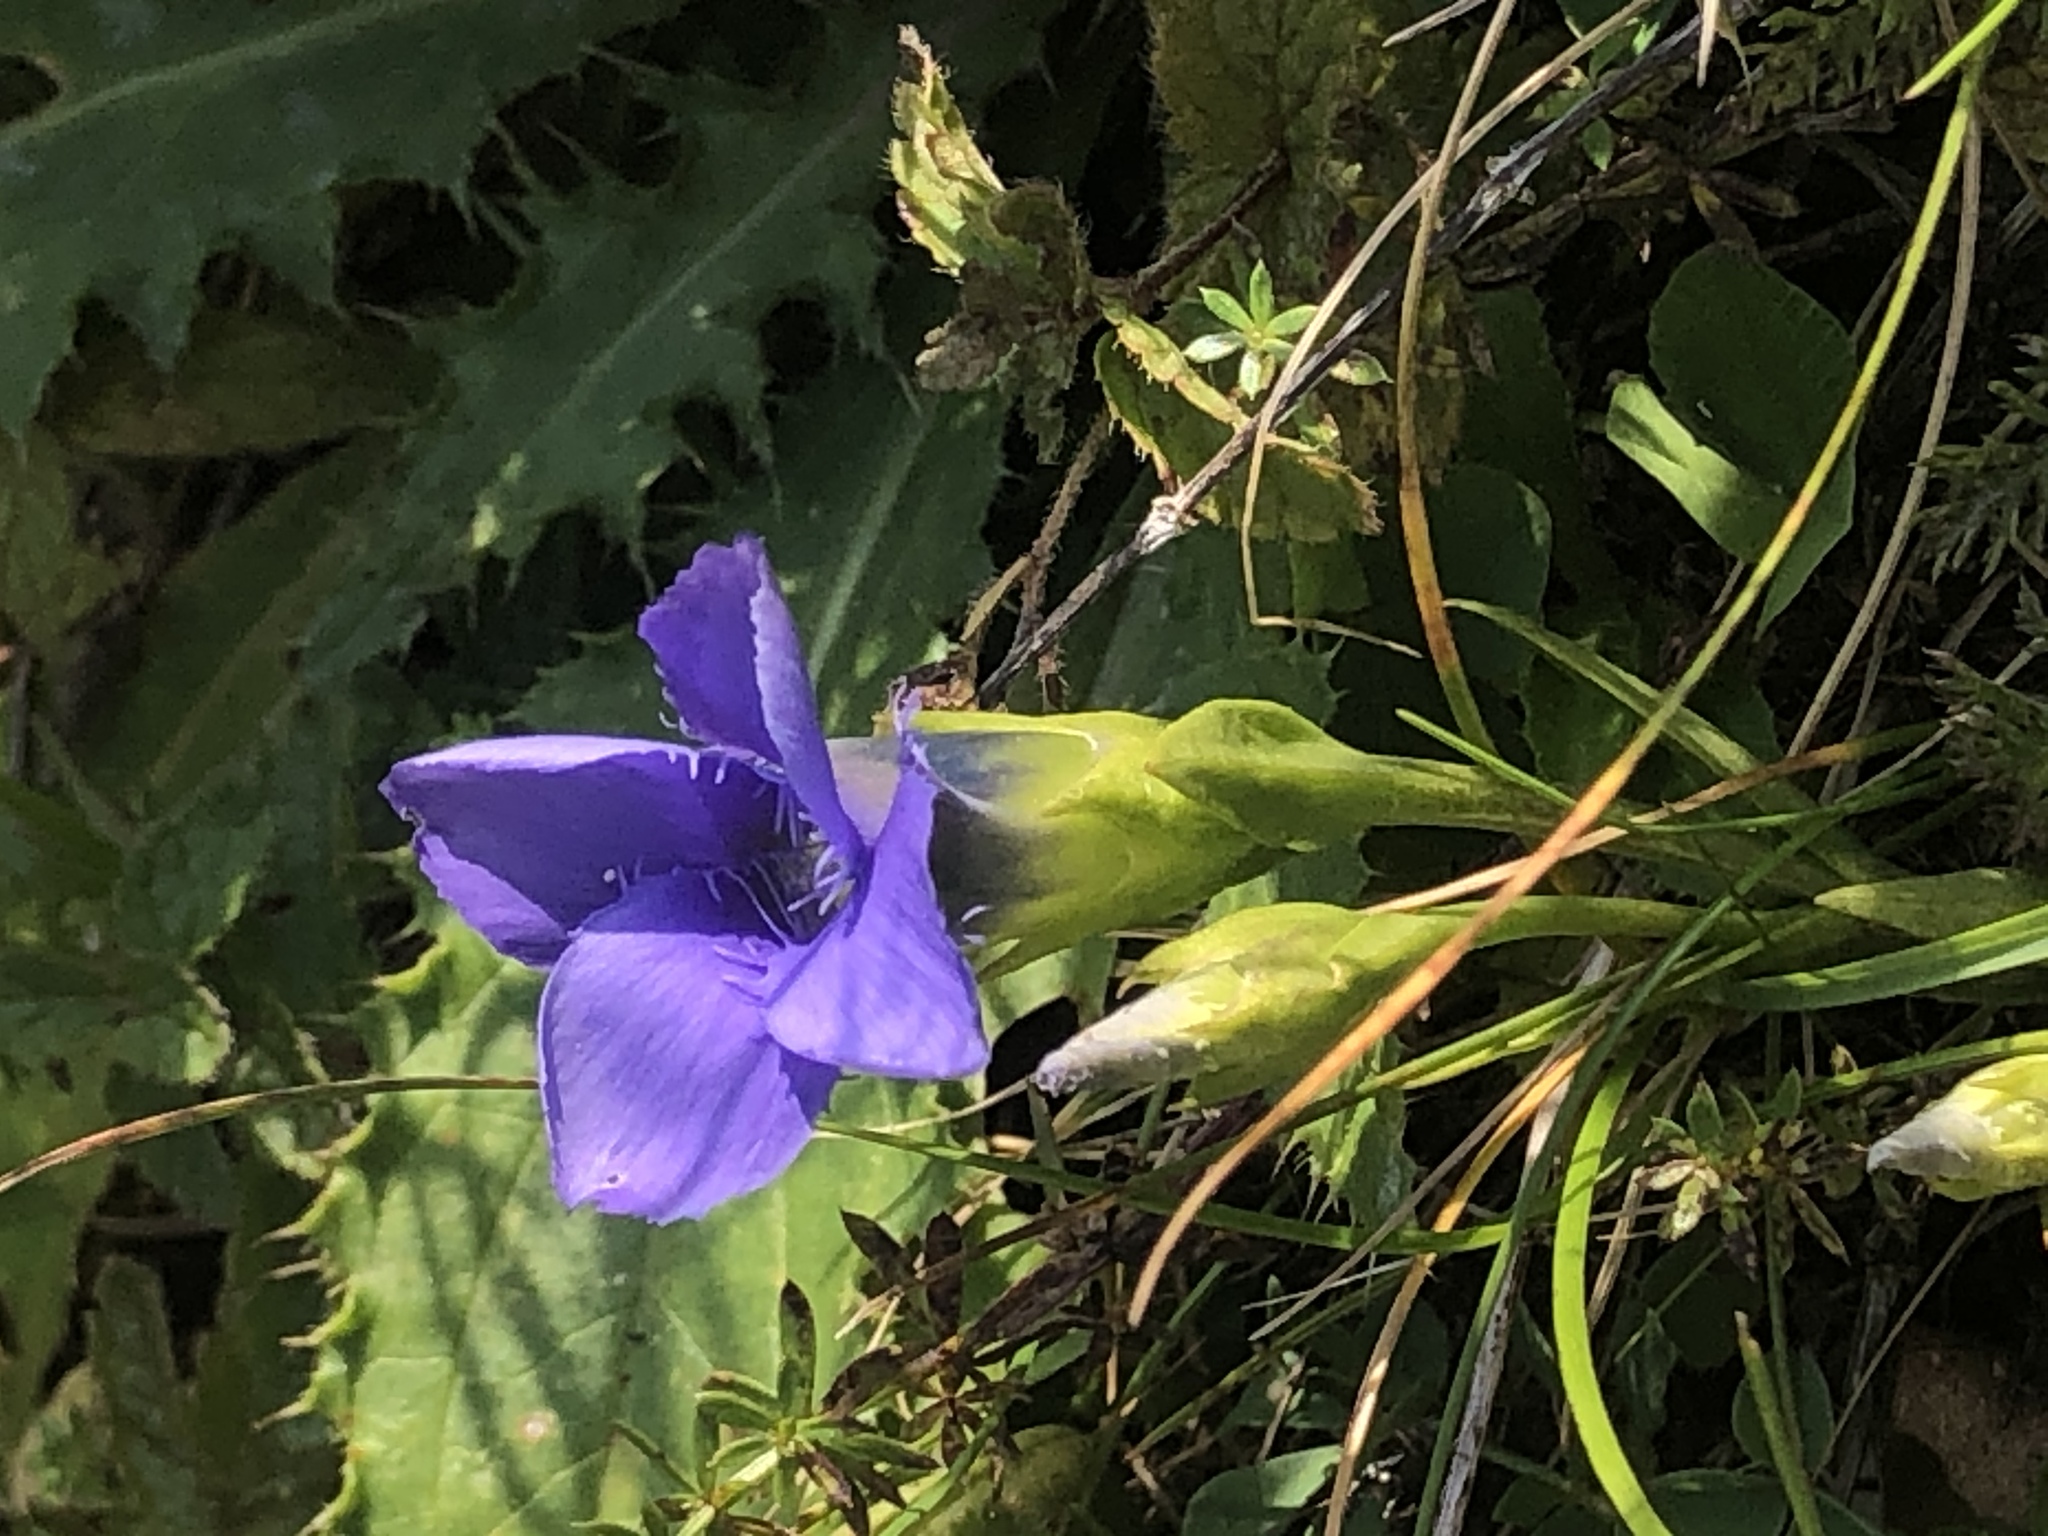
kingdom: Plantae
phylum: Tracheophyta
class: Magnoliopsida
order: Gentianales
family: Gentianaceae
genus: Gentianopsis
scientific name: Gentianopsis ciliata
